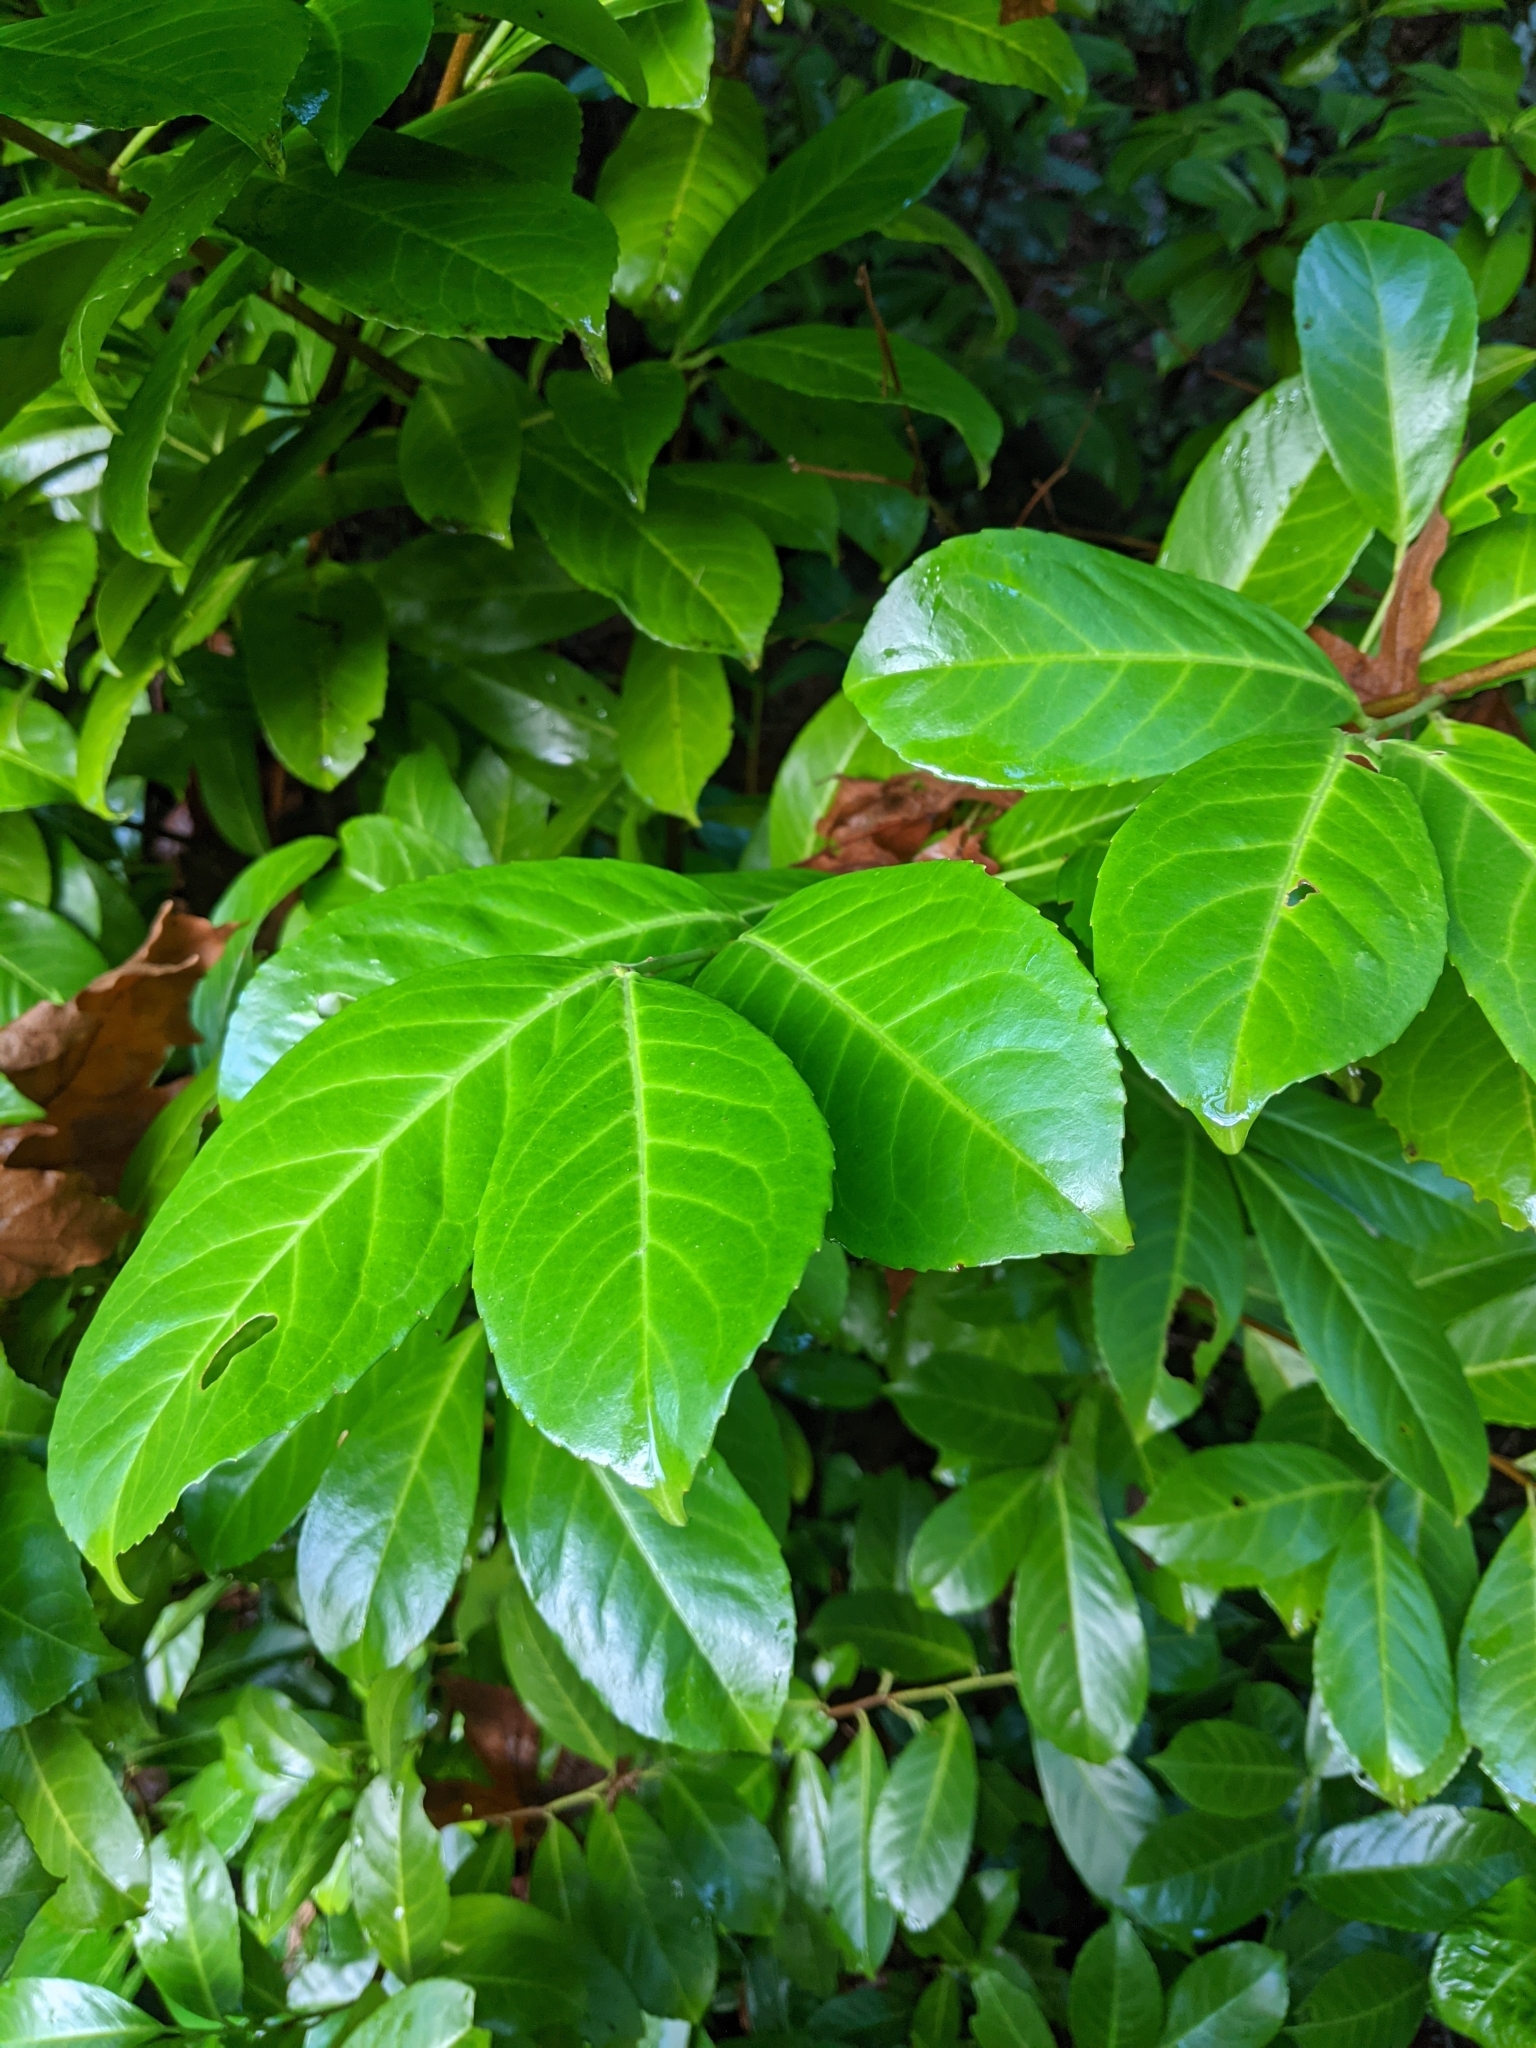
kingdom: Plantae
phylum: Tracheophyta
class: Magnoliopsida
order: Rosales
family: Rosaceae
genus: Prunus
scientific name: Prunus laurocerasus
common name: Cherry laurel
